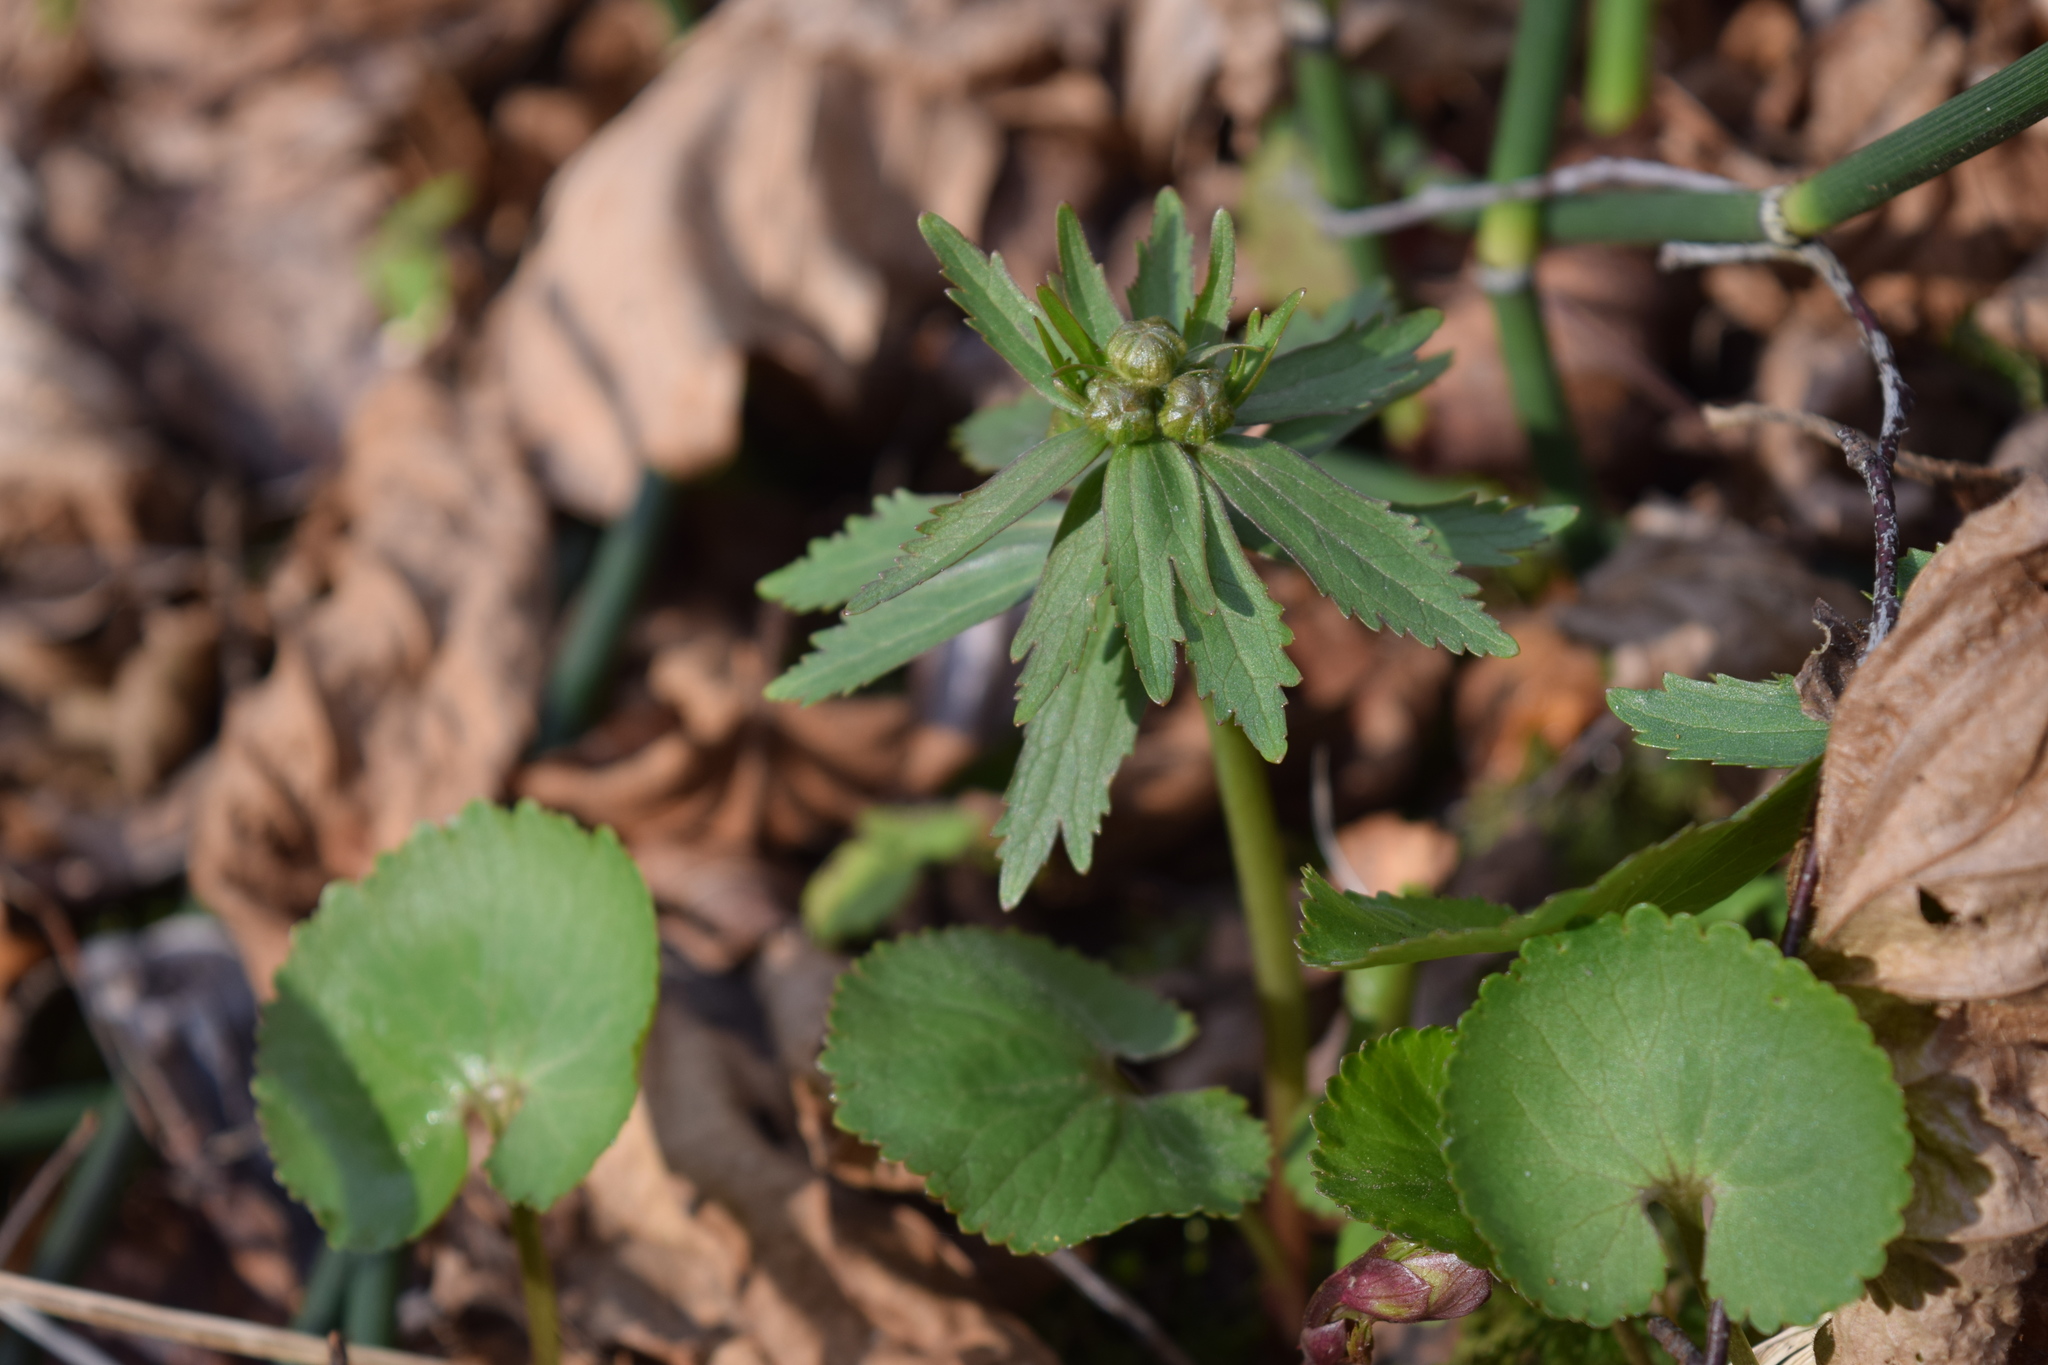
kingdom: Plantae
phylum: Tracheophyta
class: Magnoliopsida
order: Ranunculales
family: Ranunculaceae
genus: Ranunculus
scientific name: Ranunculus cassubicus
